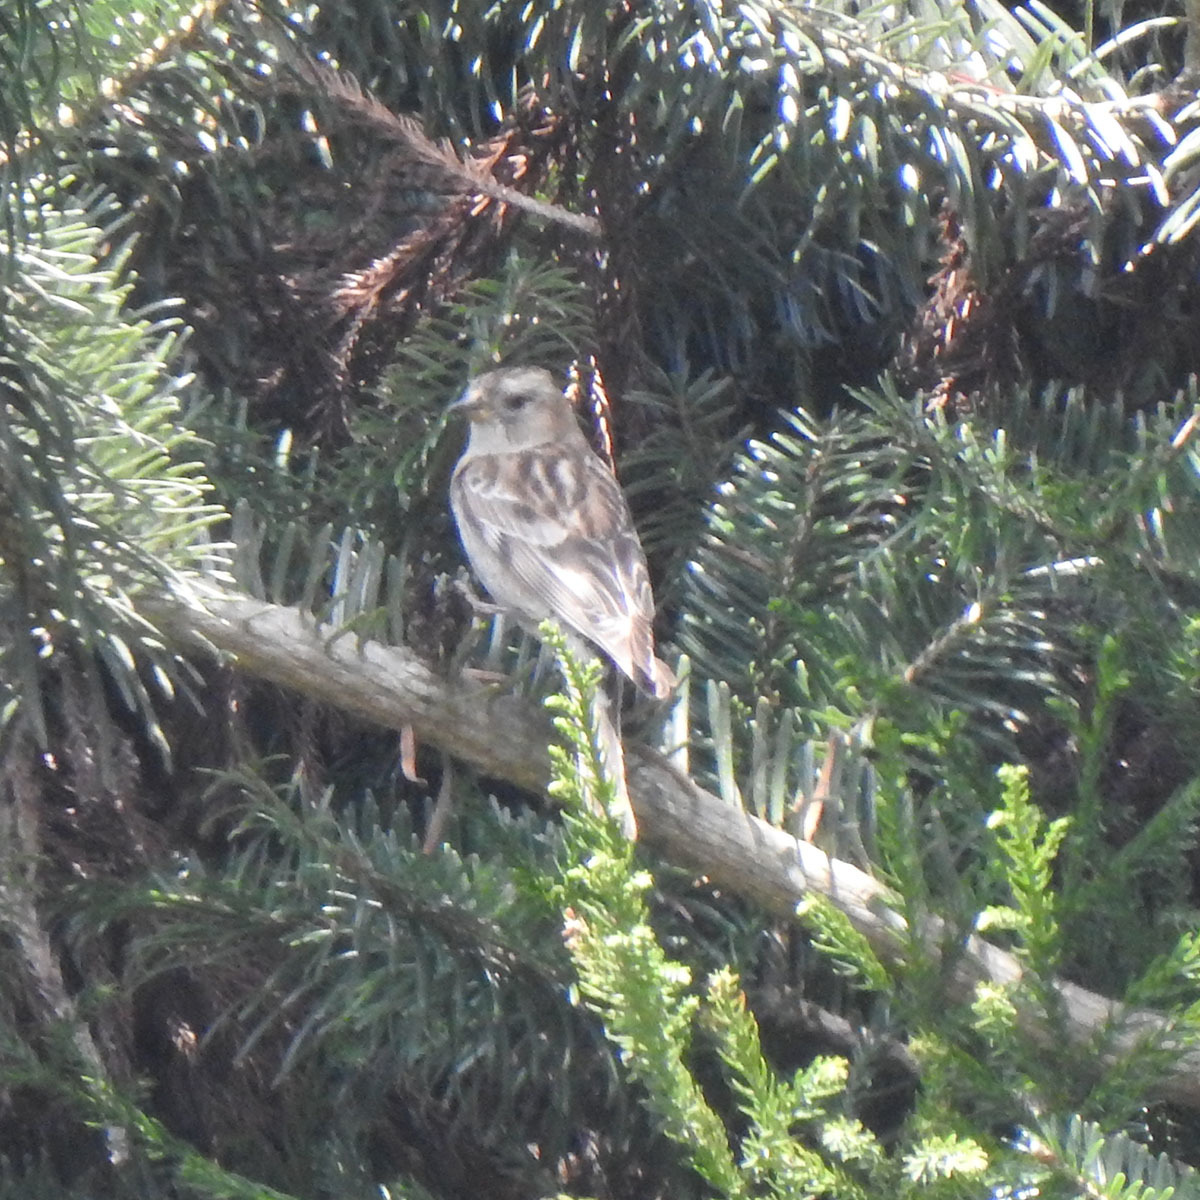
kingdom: Animalia
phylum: Chordata
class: Aves
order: Passeriformes
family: Fringillidae
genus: Leucosticte
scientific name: Leucosticte nemoricola
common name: Plain mountain finch
